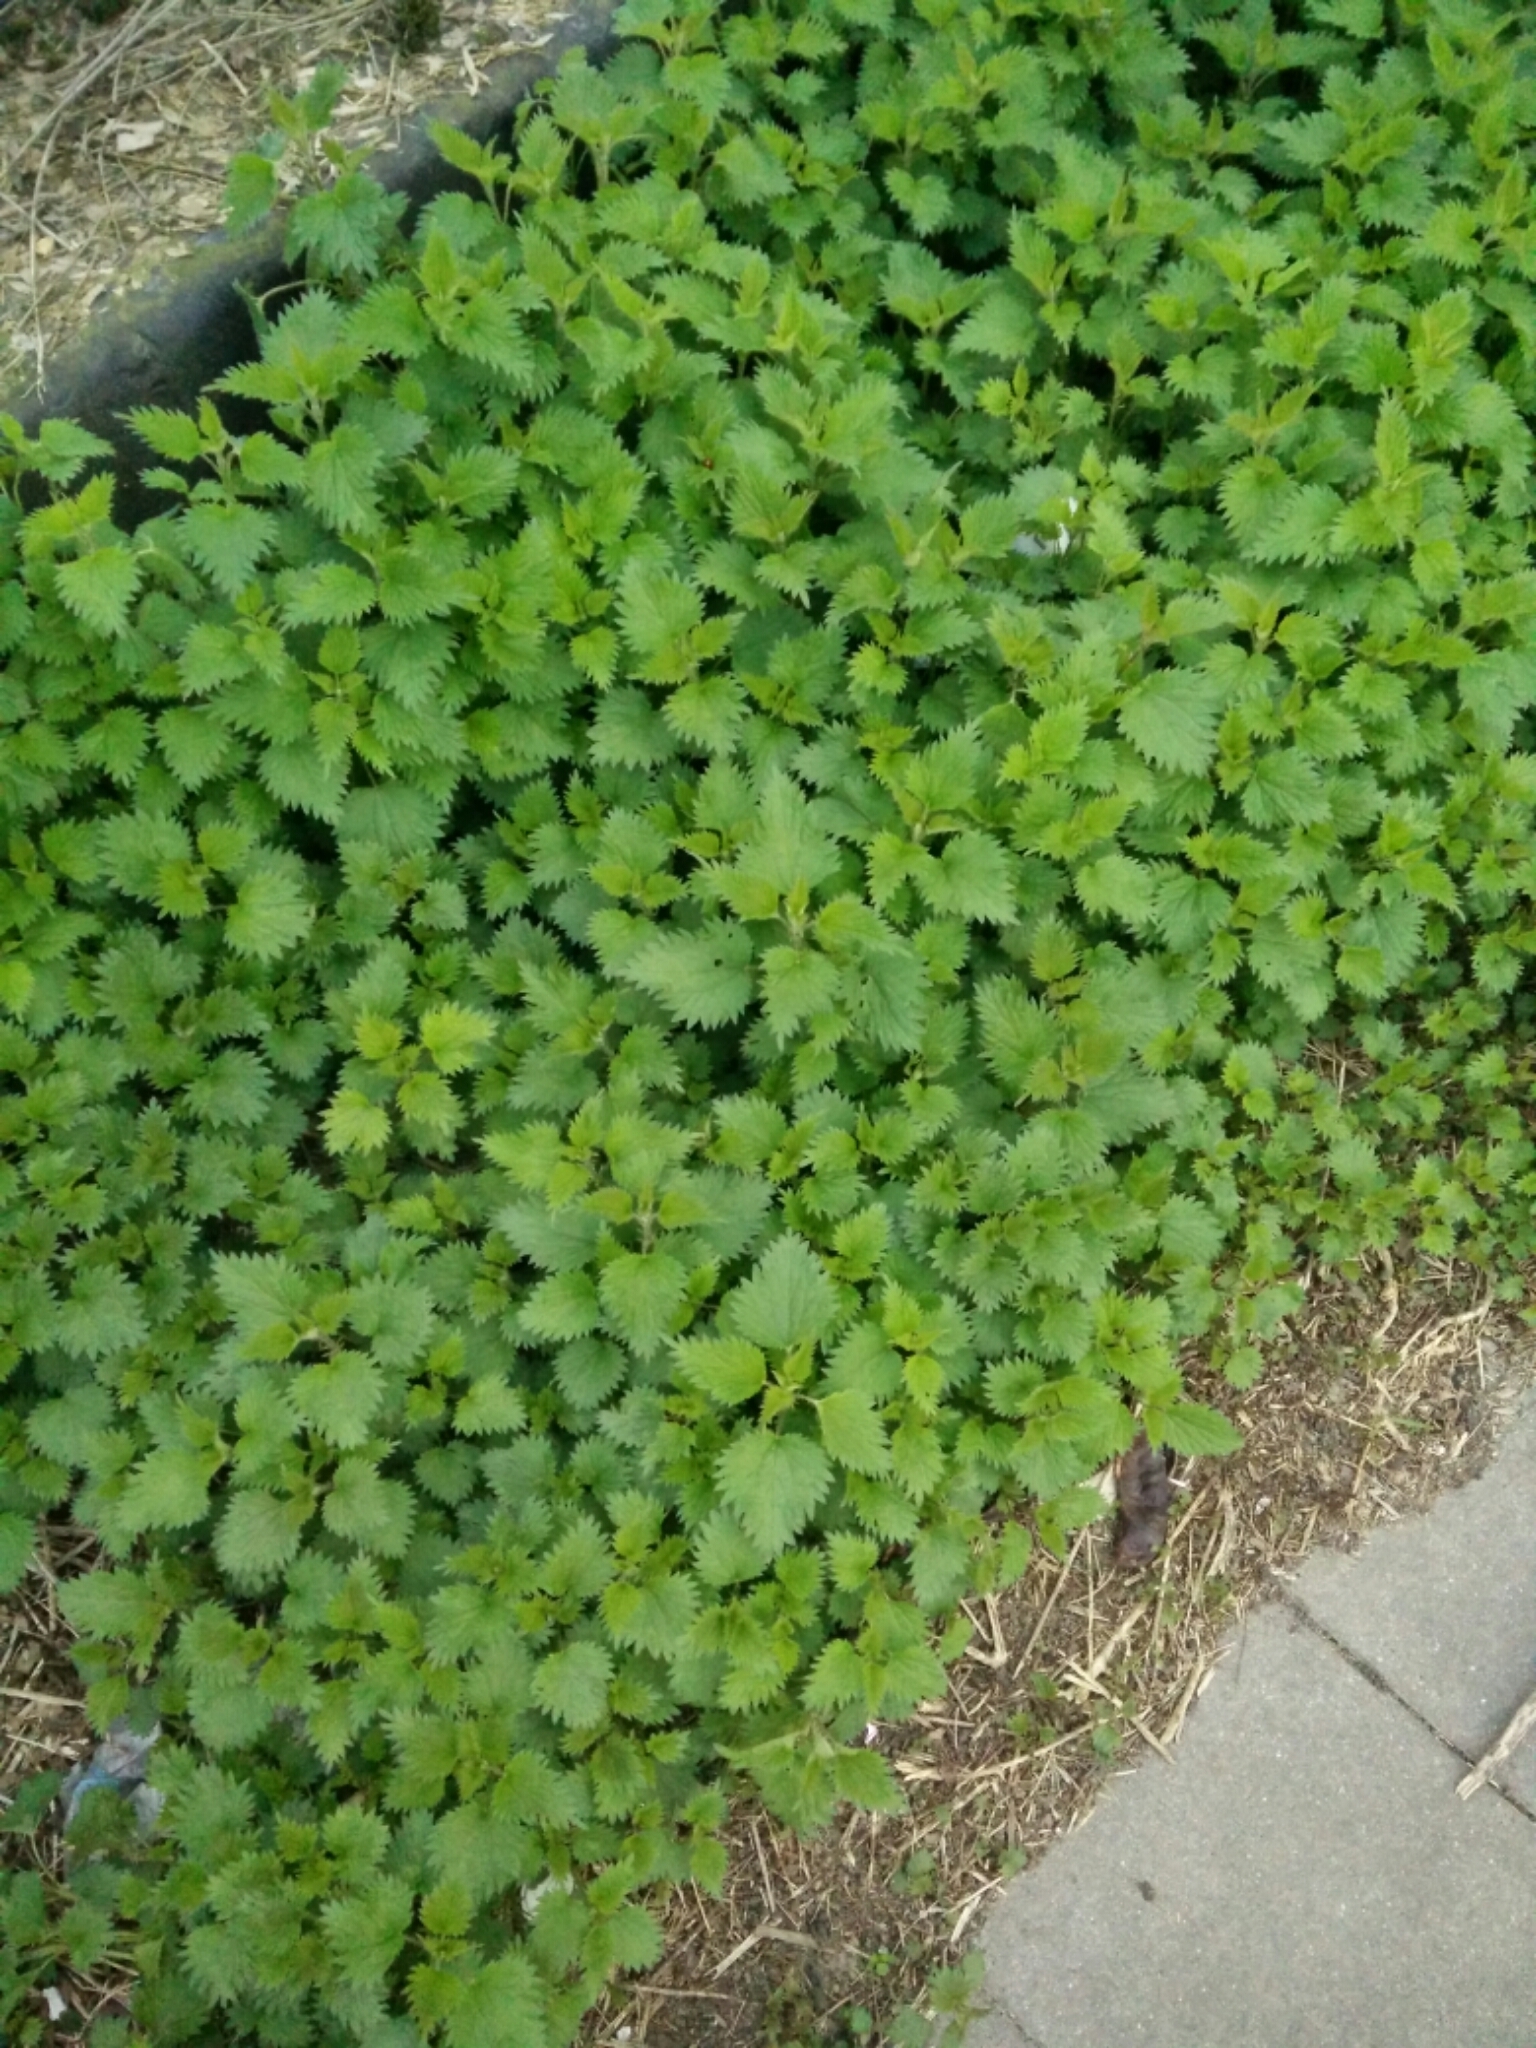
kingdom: Plantae
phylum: Tracheophyta
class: Magnoliopsida
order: Rosales
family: Urticaceae
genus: Urtica
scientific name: Urtica dioica
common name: Common nettle
